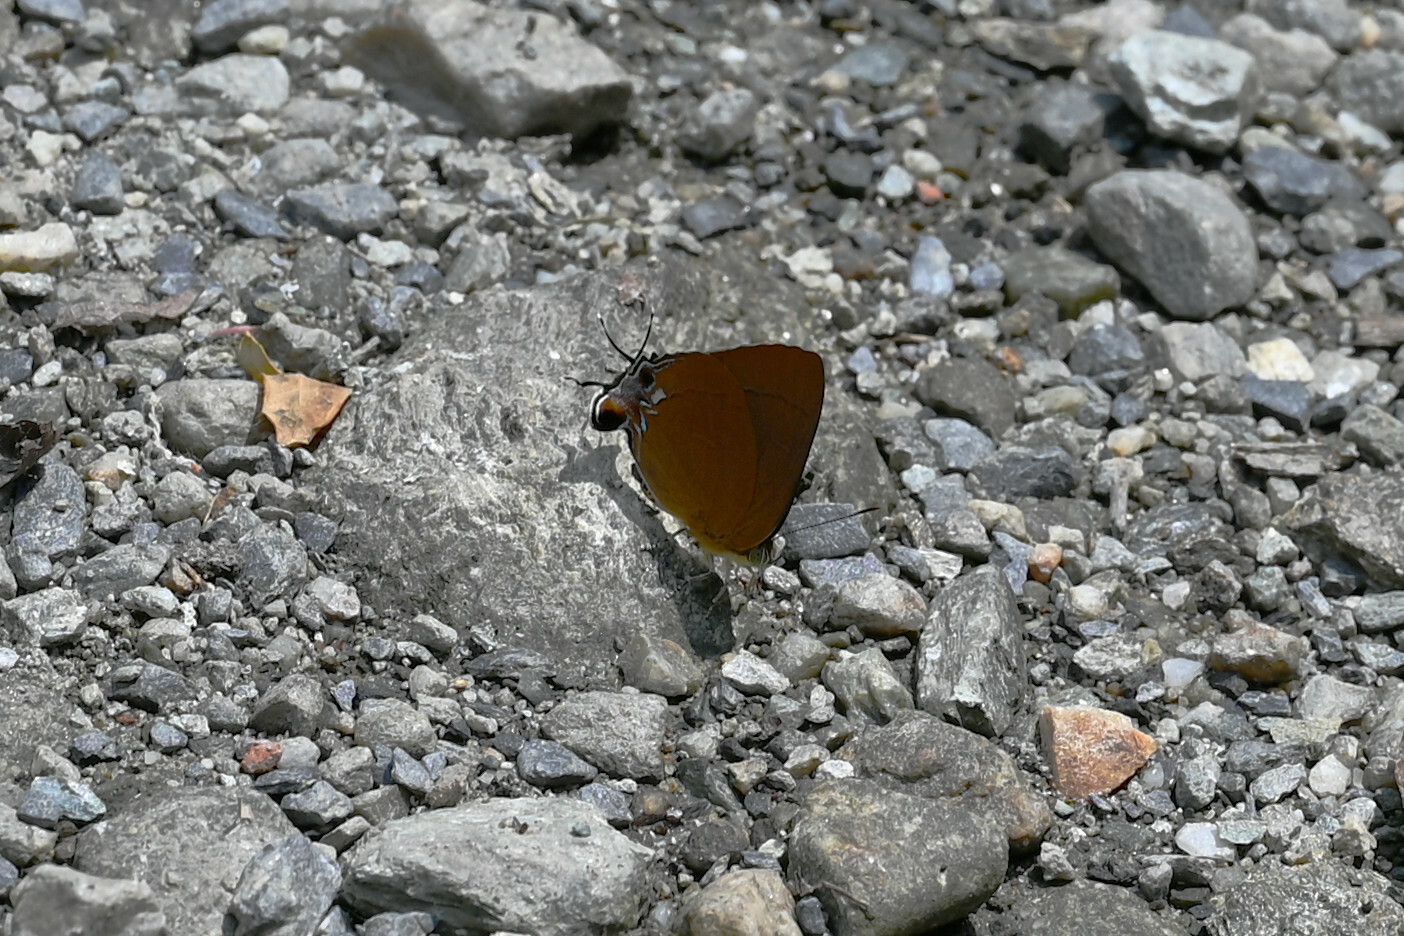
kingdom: Animalia
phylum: Arthropoda
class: Insecta
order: Lepidoptera
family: Lycaenidae
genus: Remelana
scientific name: Remelana jangala
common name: Chocolate royal
